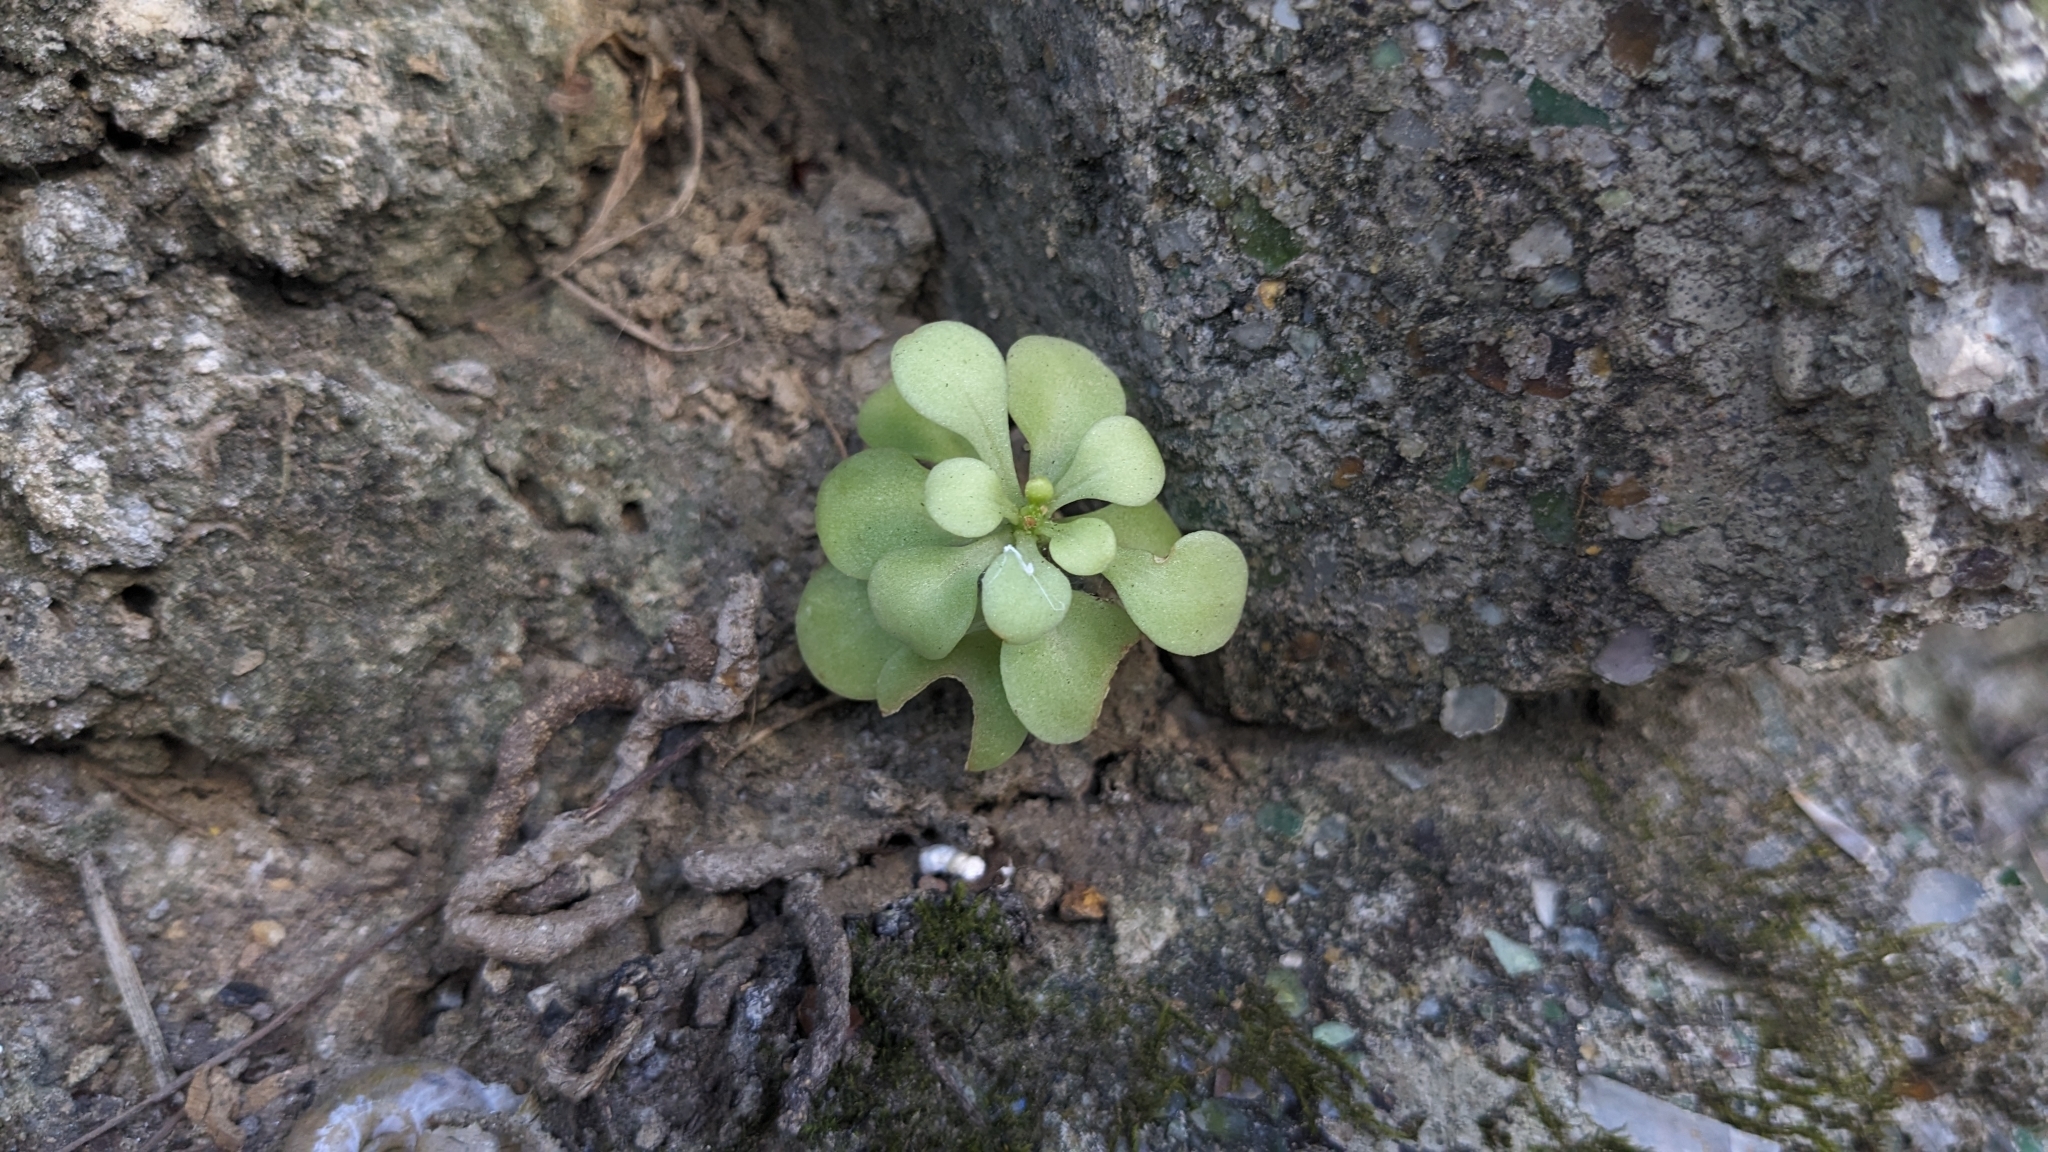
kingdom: Plantae
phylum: Tracheophyta
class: Magnoliopsida
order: Saxifragales
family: Crassulaceae
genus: Sedum
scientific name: Sedum formosanum
